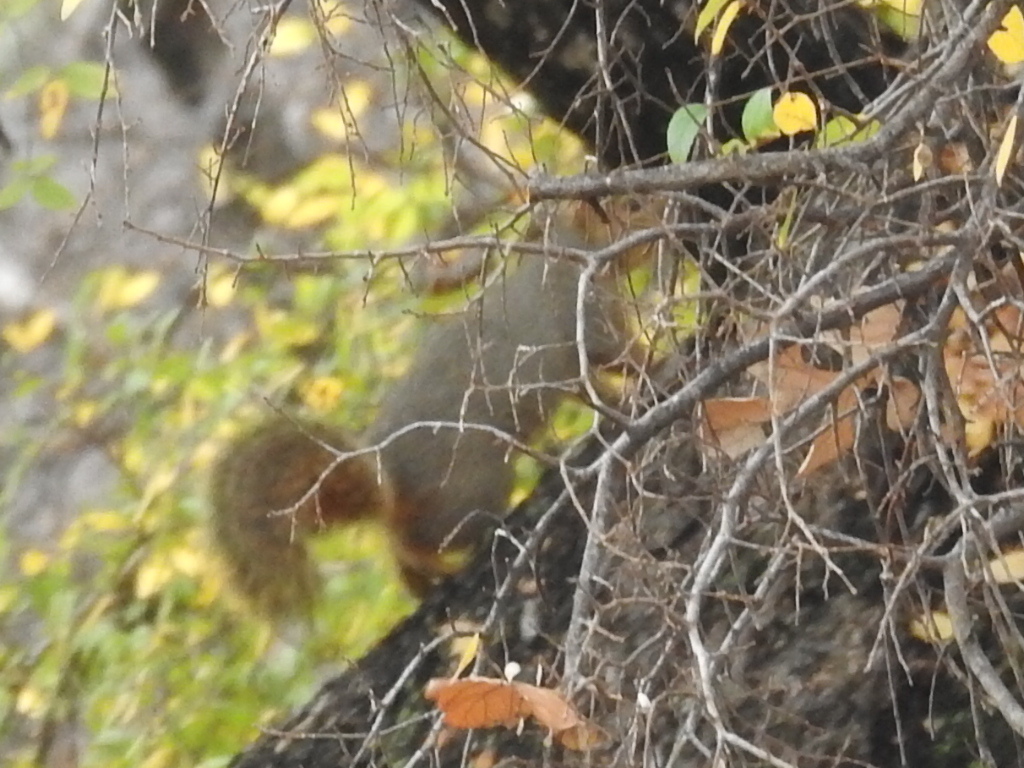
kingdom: Animalia
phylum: Chordata
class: Mammalia
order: Rodentia
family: Sciuridae
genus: Sciurus
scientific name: Sciurus niger
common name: Fox squirrel
